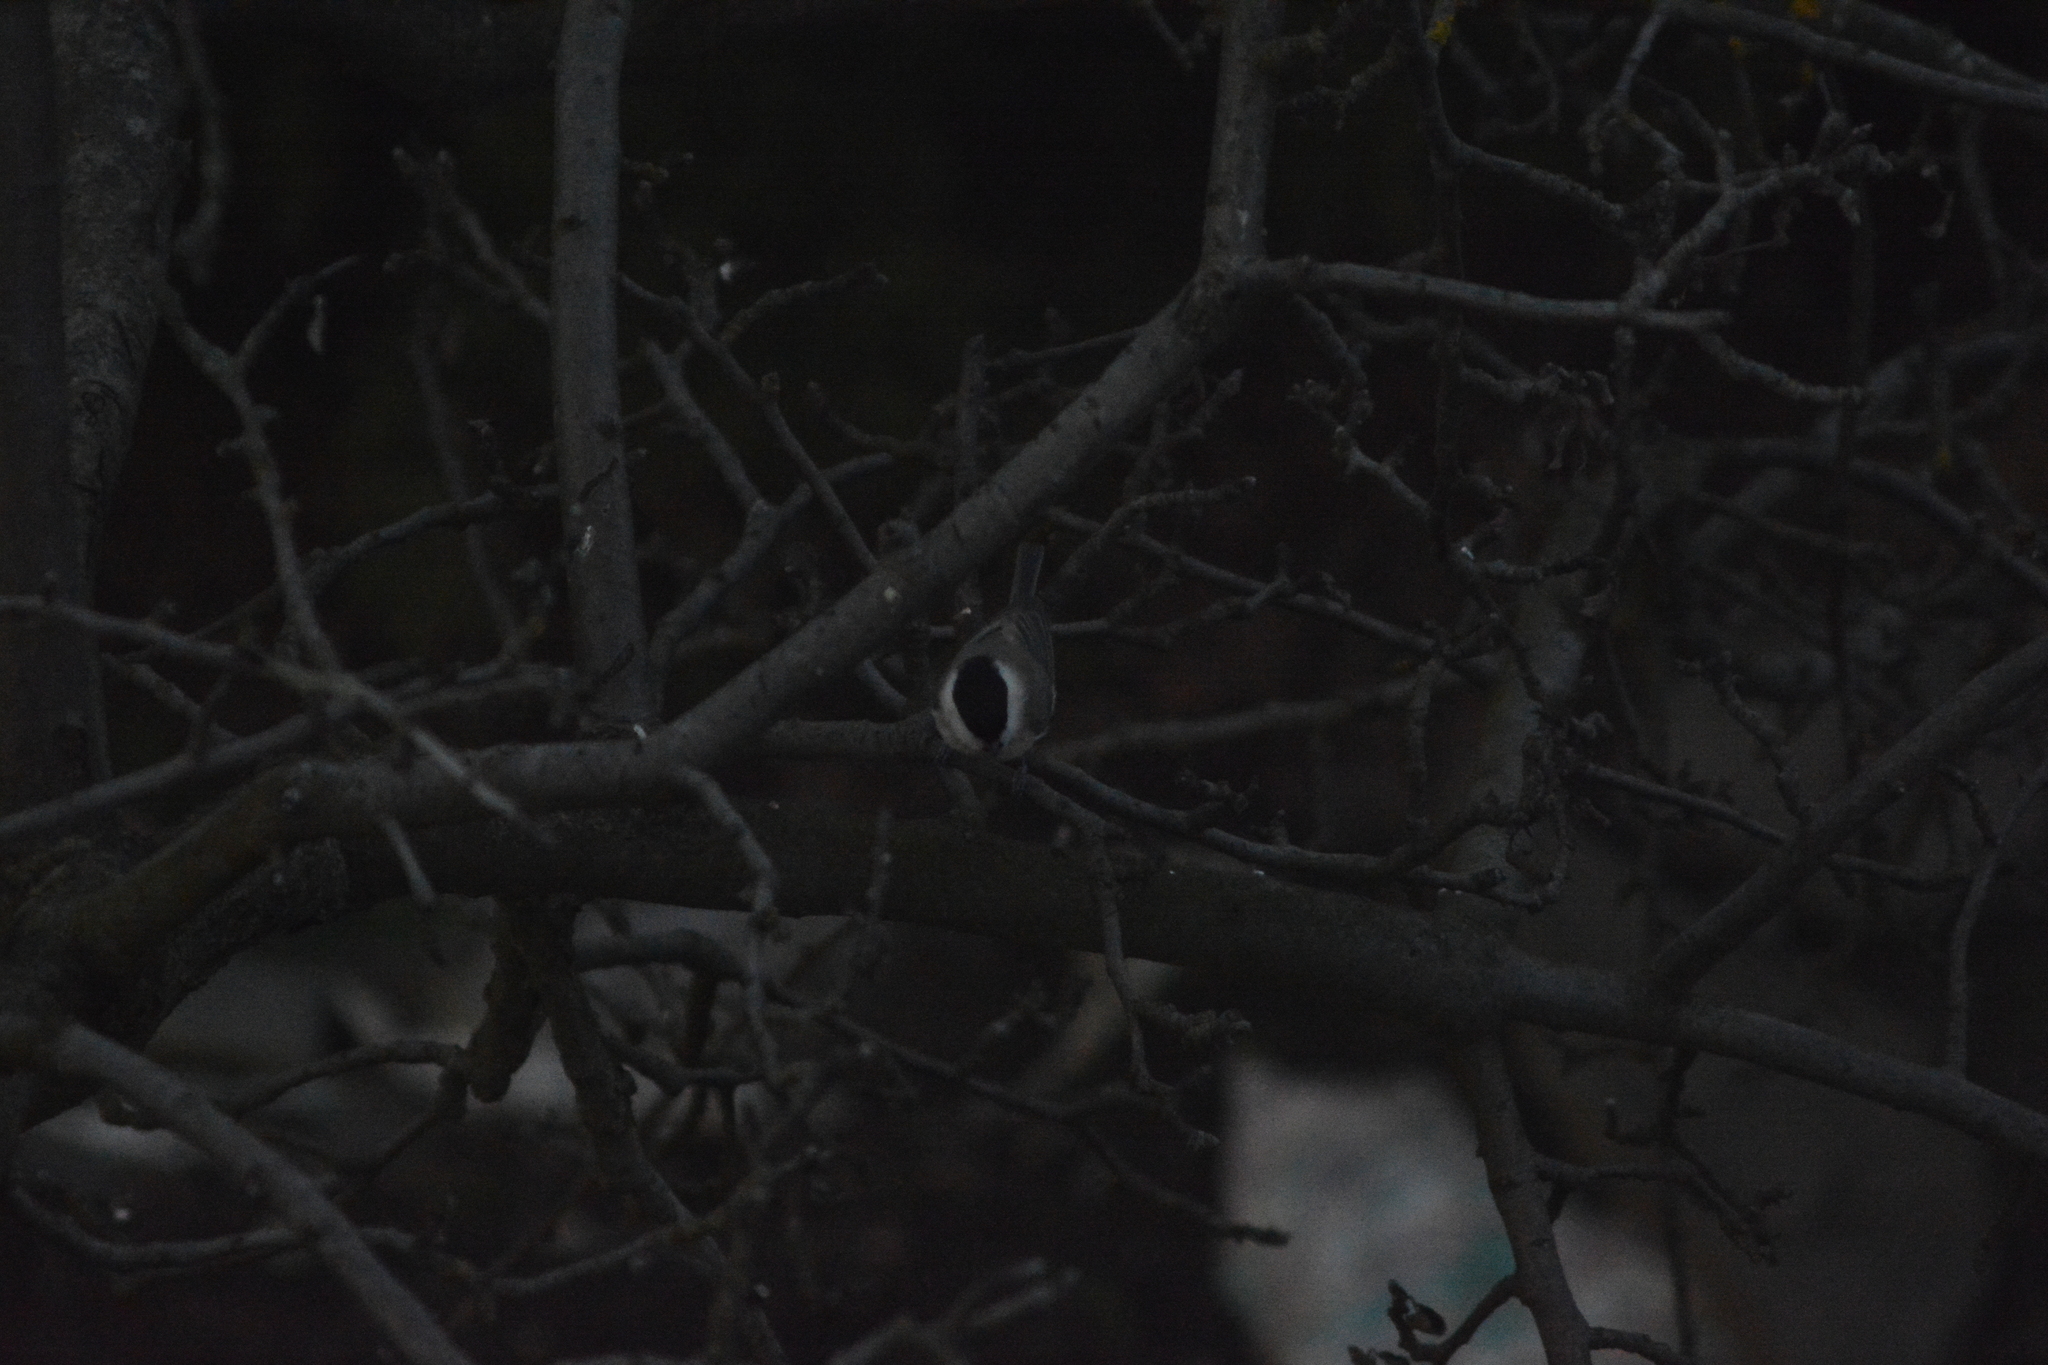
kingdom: Animalia
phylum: Chordata
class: Aves
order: Passeriformes
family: Paridae
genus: Poecile
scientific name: Poecile montanus
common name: Willow tit
